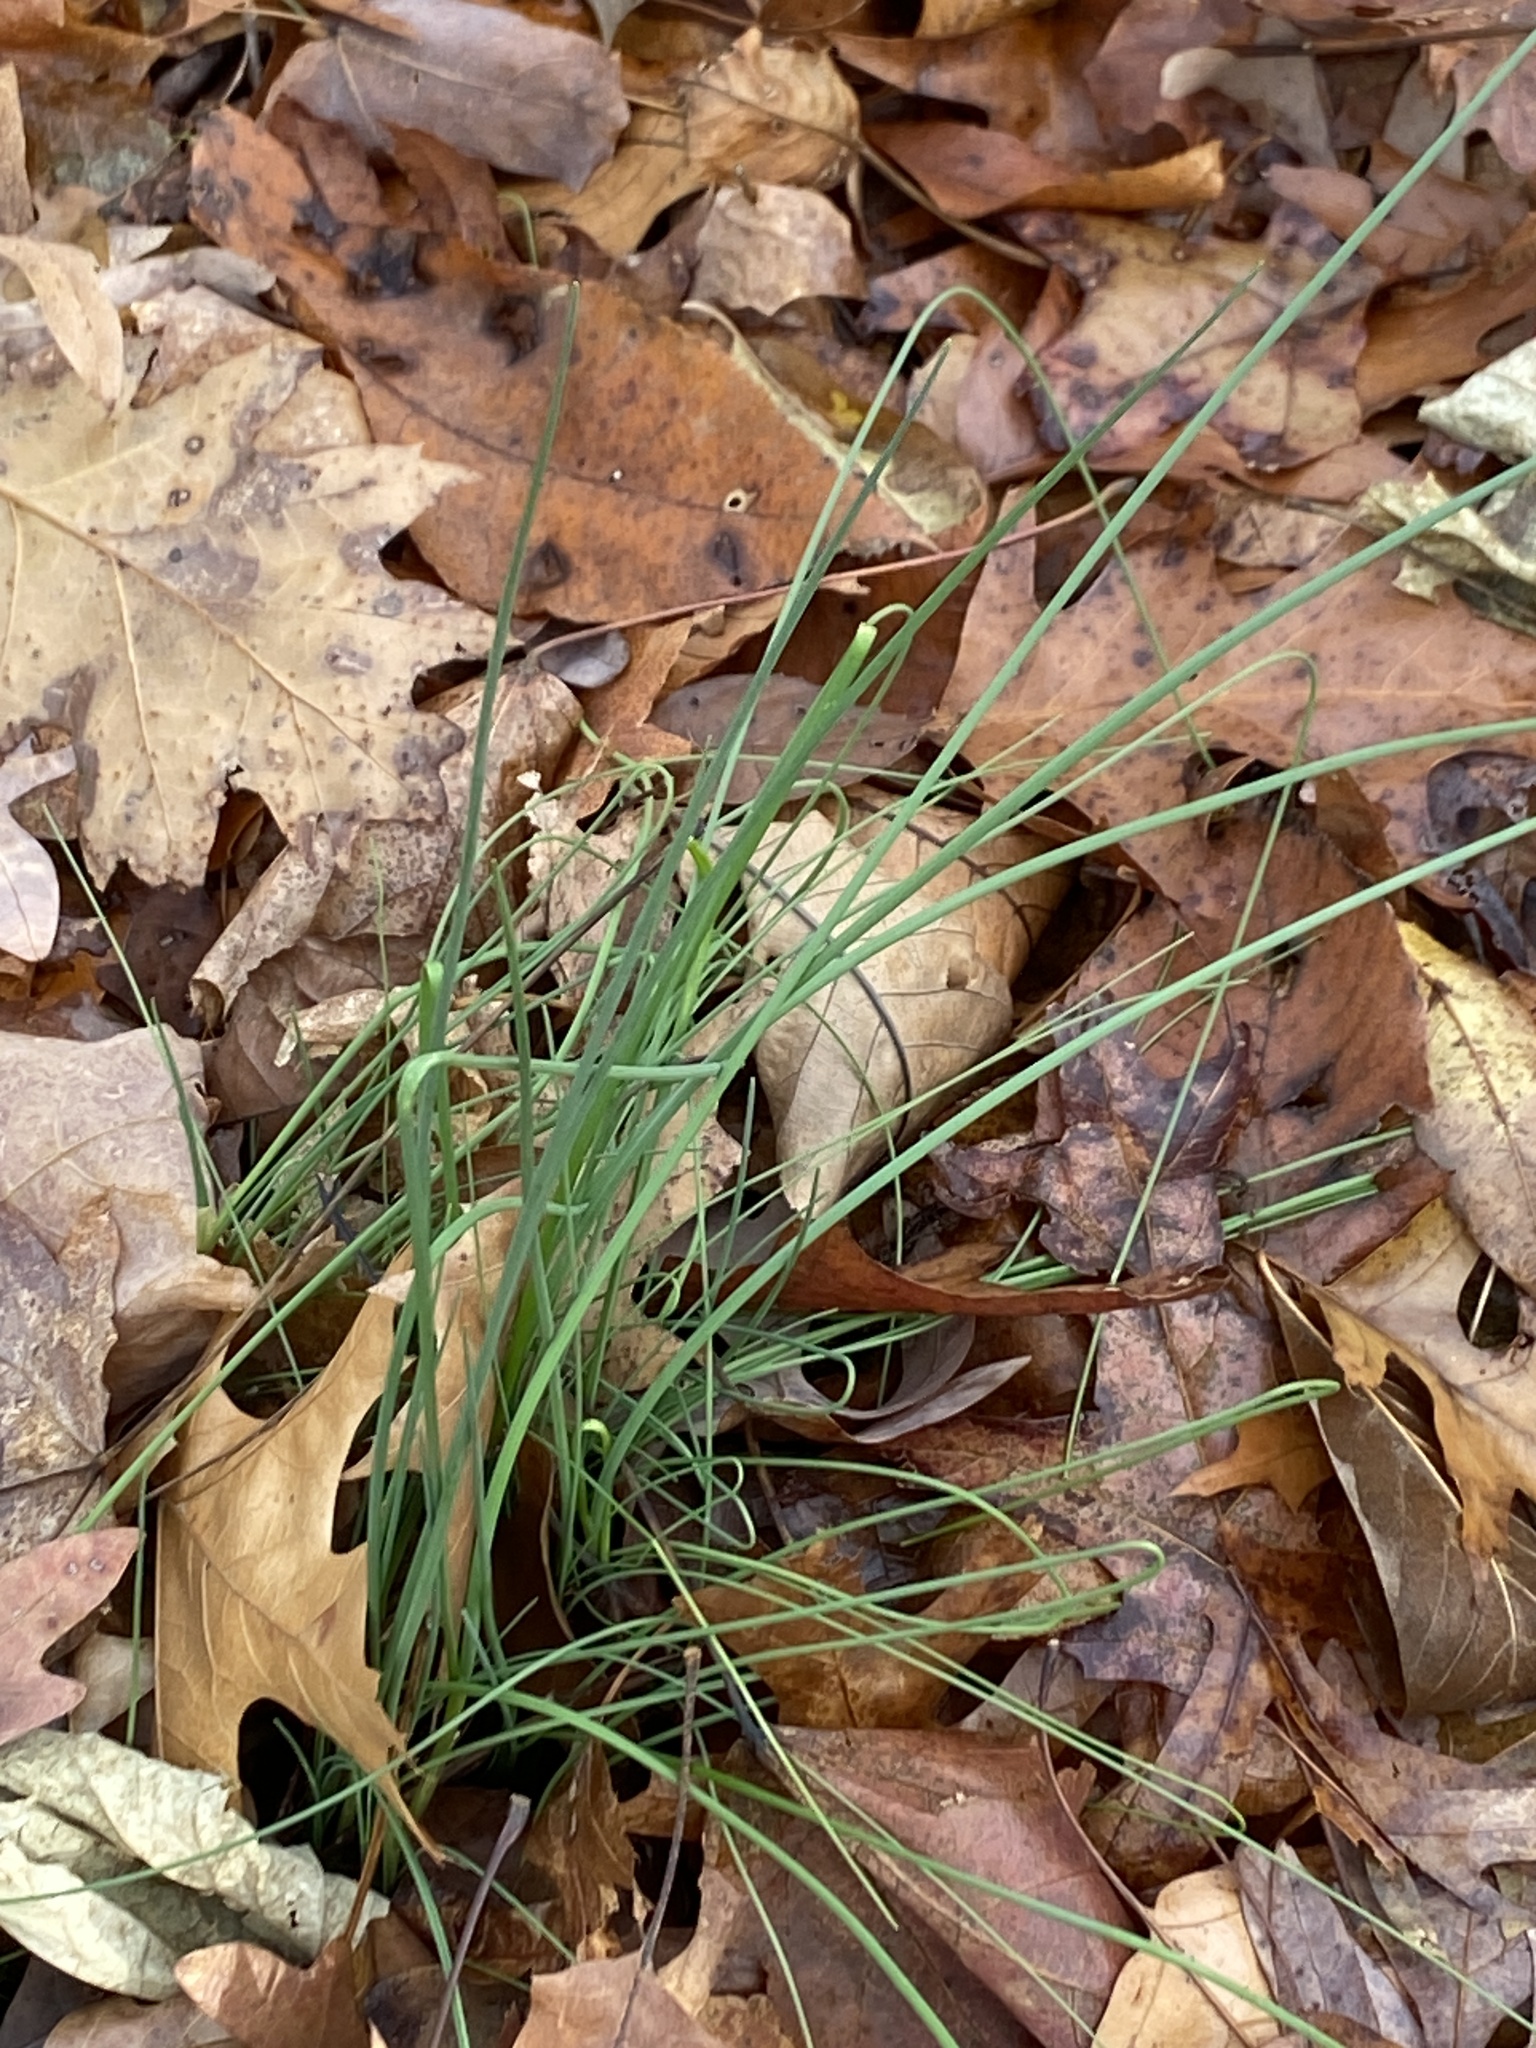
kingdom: Plantae
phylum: Tracheophyta
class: Liliopsida
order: Asparagales
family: Amaryllidaceae
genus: Allium
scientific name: Allium vineale
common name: Crow garlic
